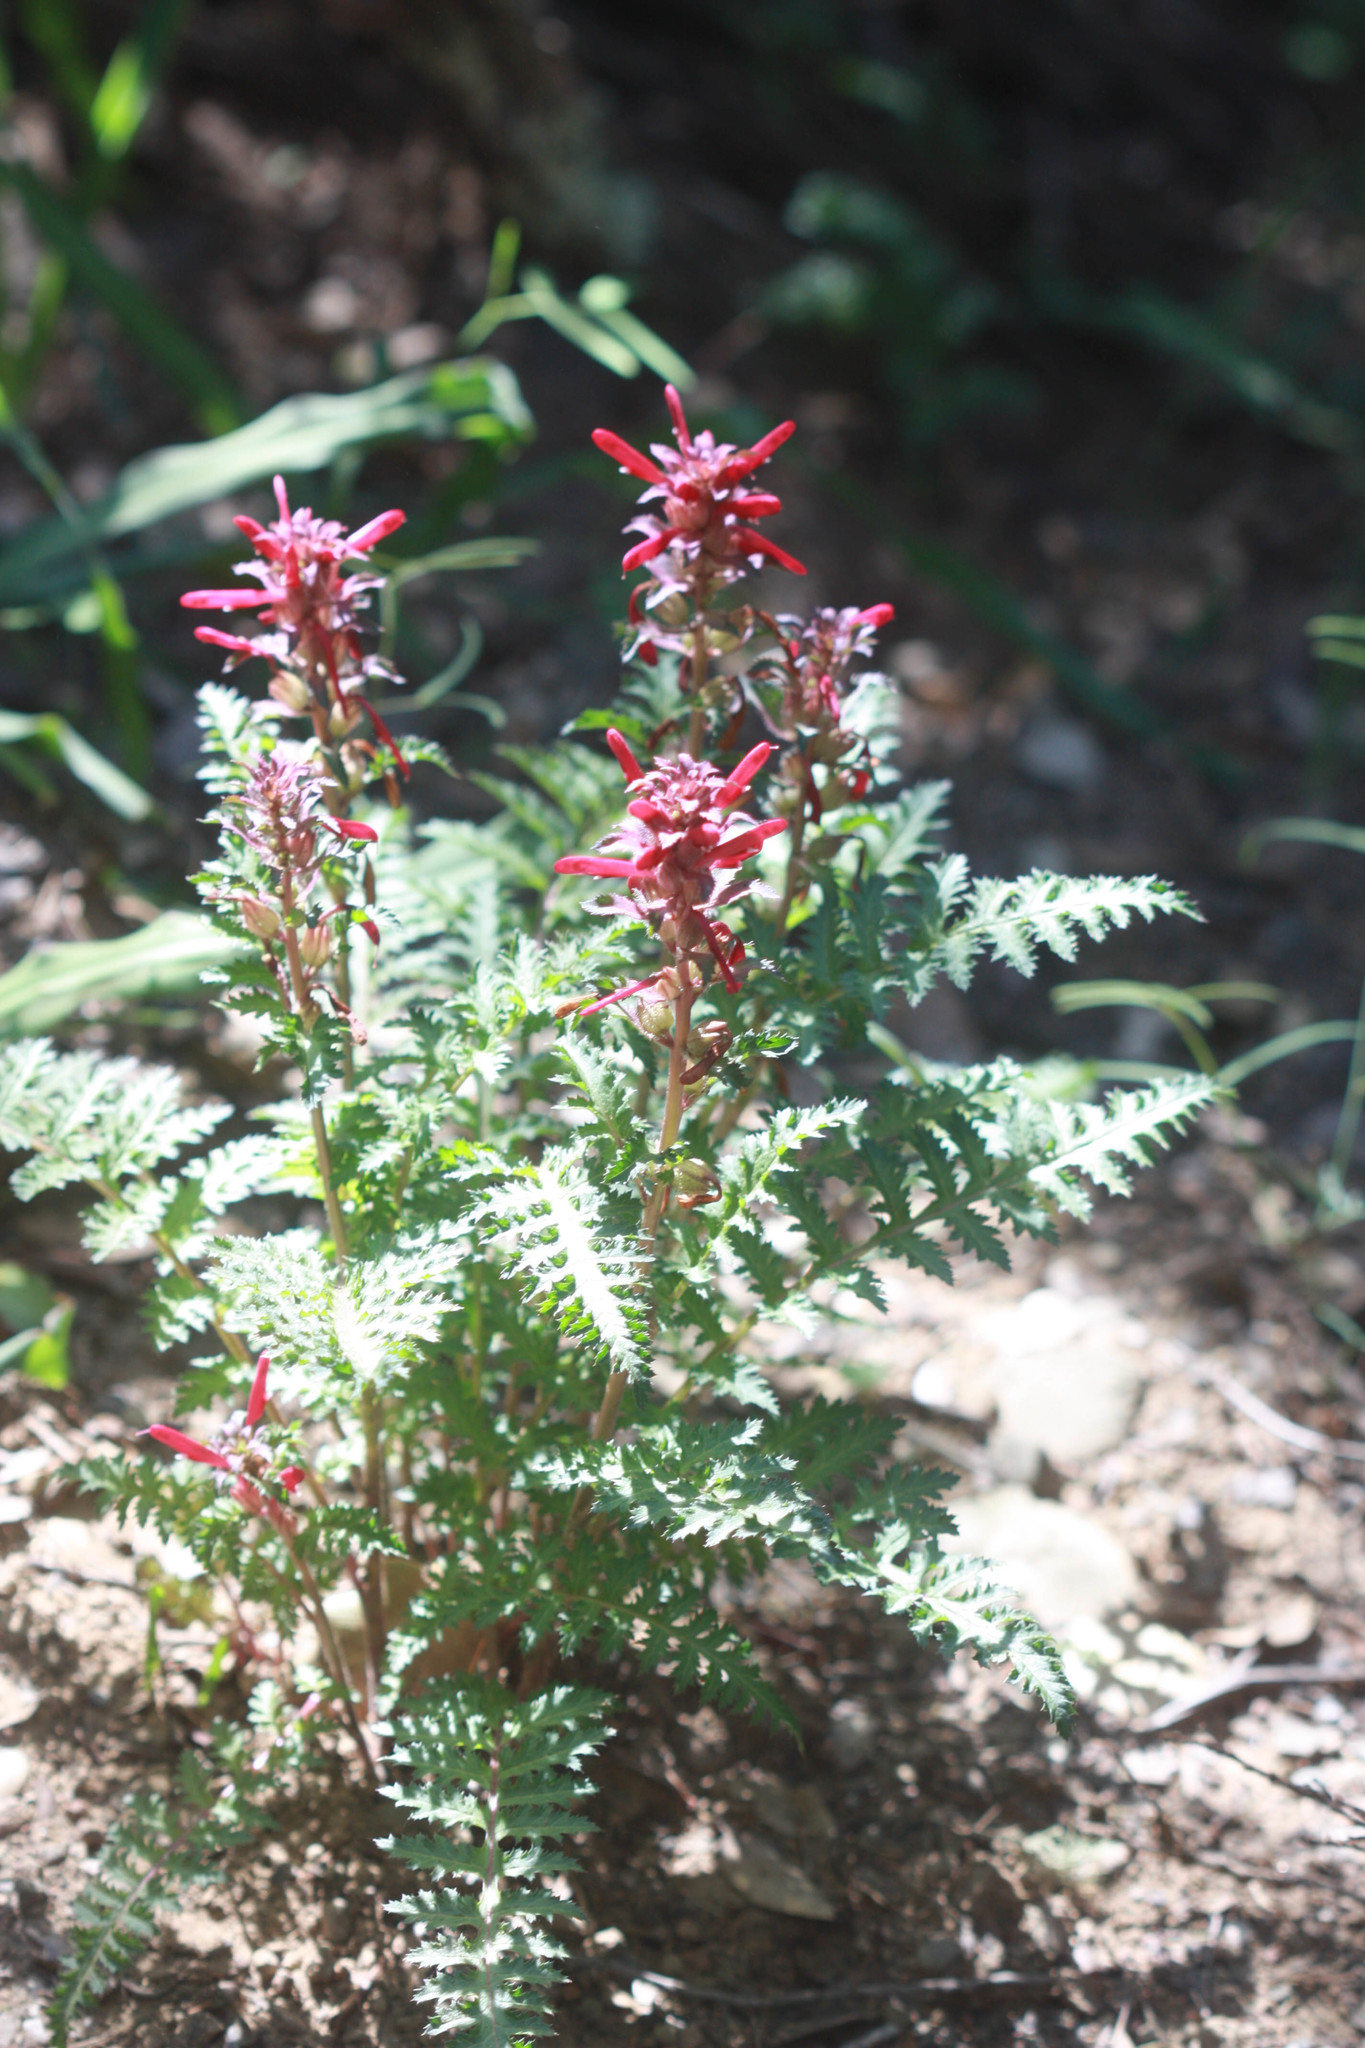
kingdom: Plantae
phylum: Tracheophyta
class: Magnoliopsida
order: Lamiales
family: Orobanchaceae
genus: Pedicularis
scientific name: Pedicularis densiflora
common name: Indian warrior
